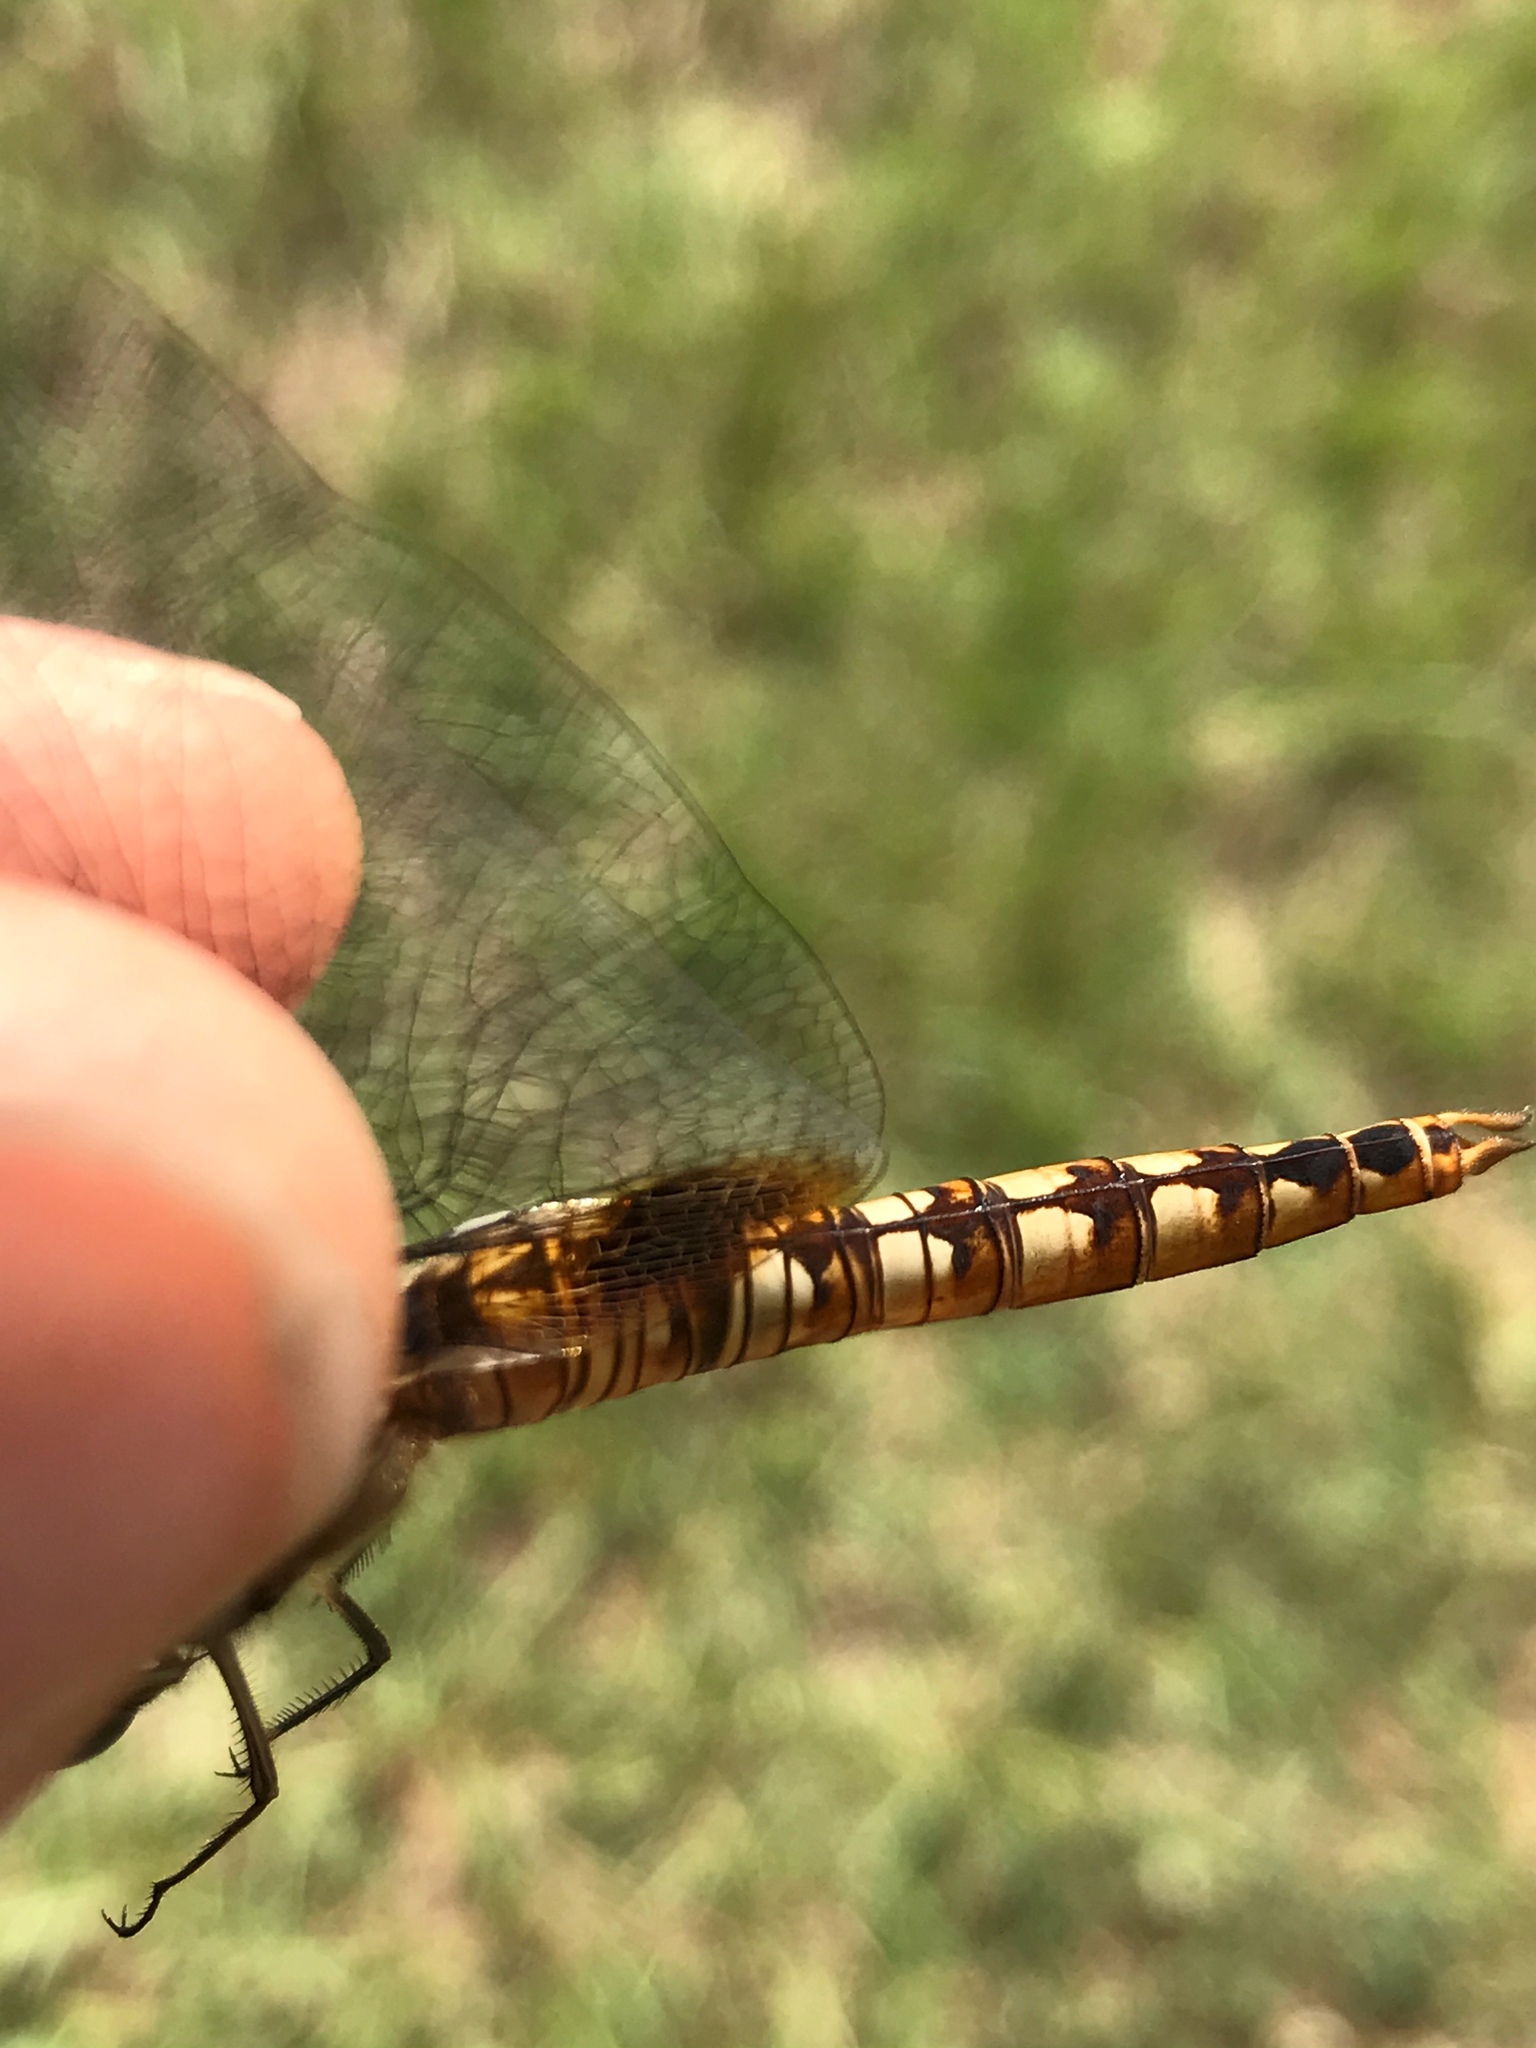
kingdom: Animalia
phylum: Arthropoda
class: Insecta
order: Odonata
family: Libellulidae
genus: Pantala
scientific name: Pantala hymenaea
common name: Spot-winged glider
